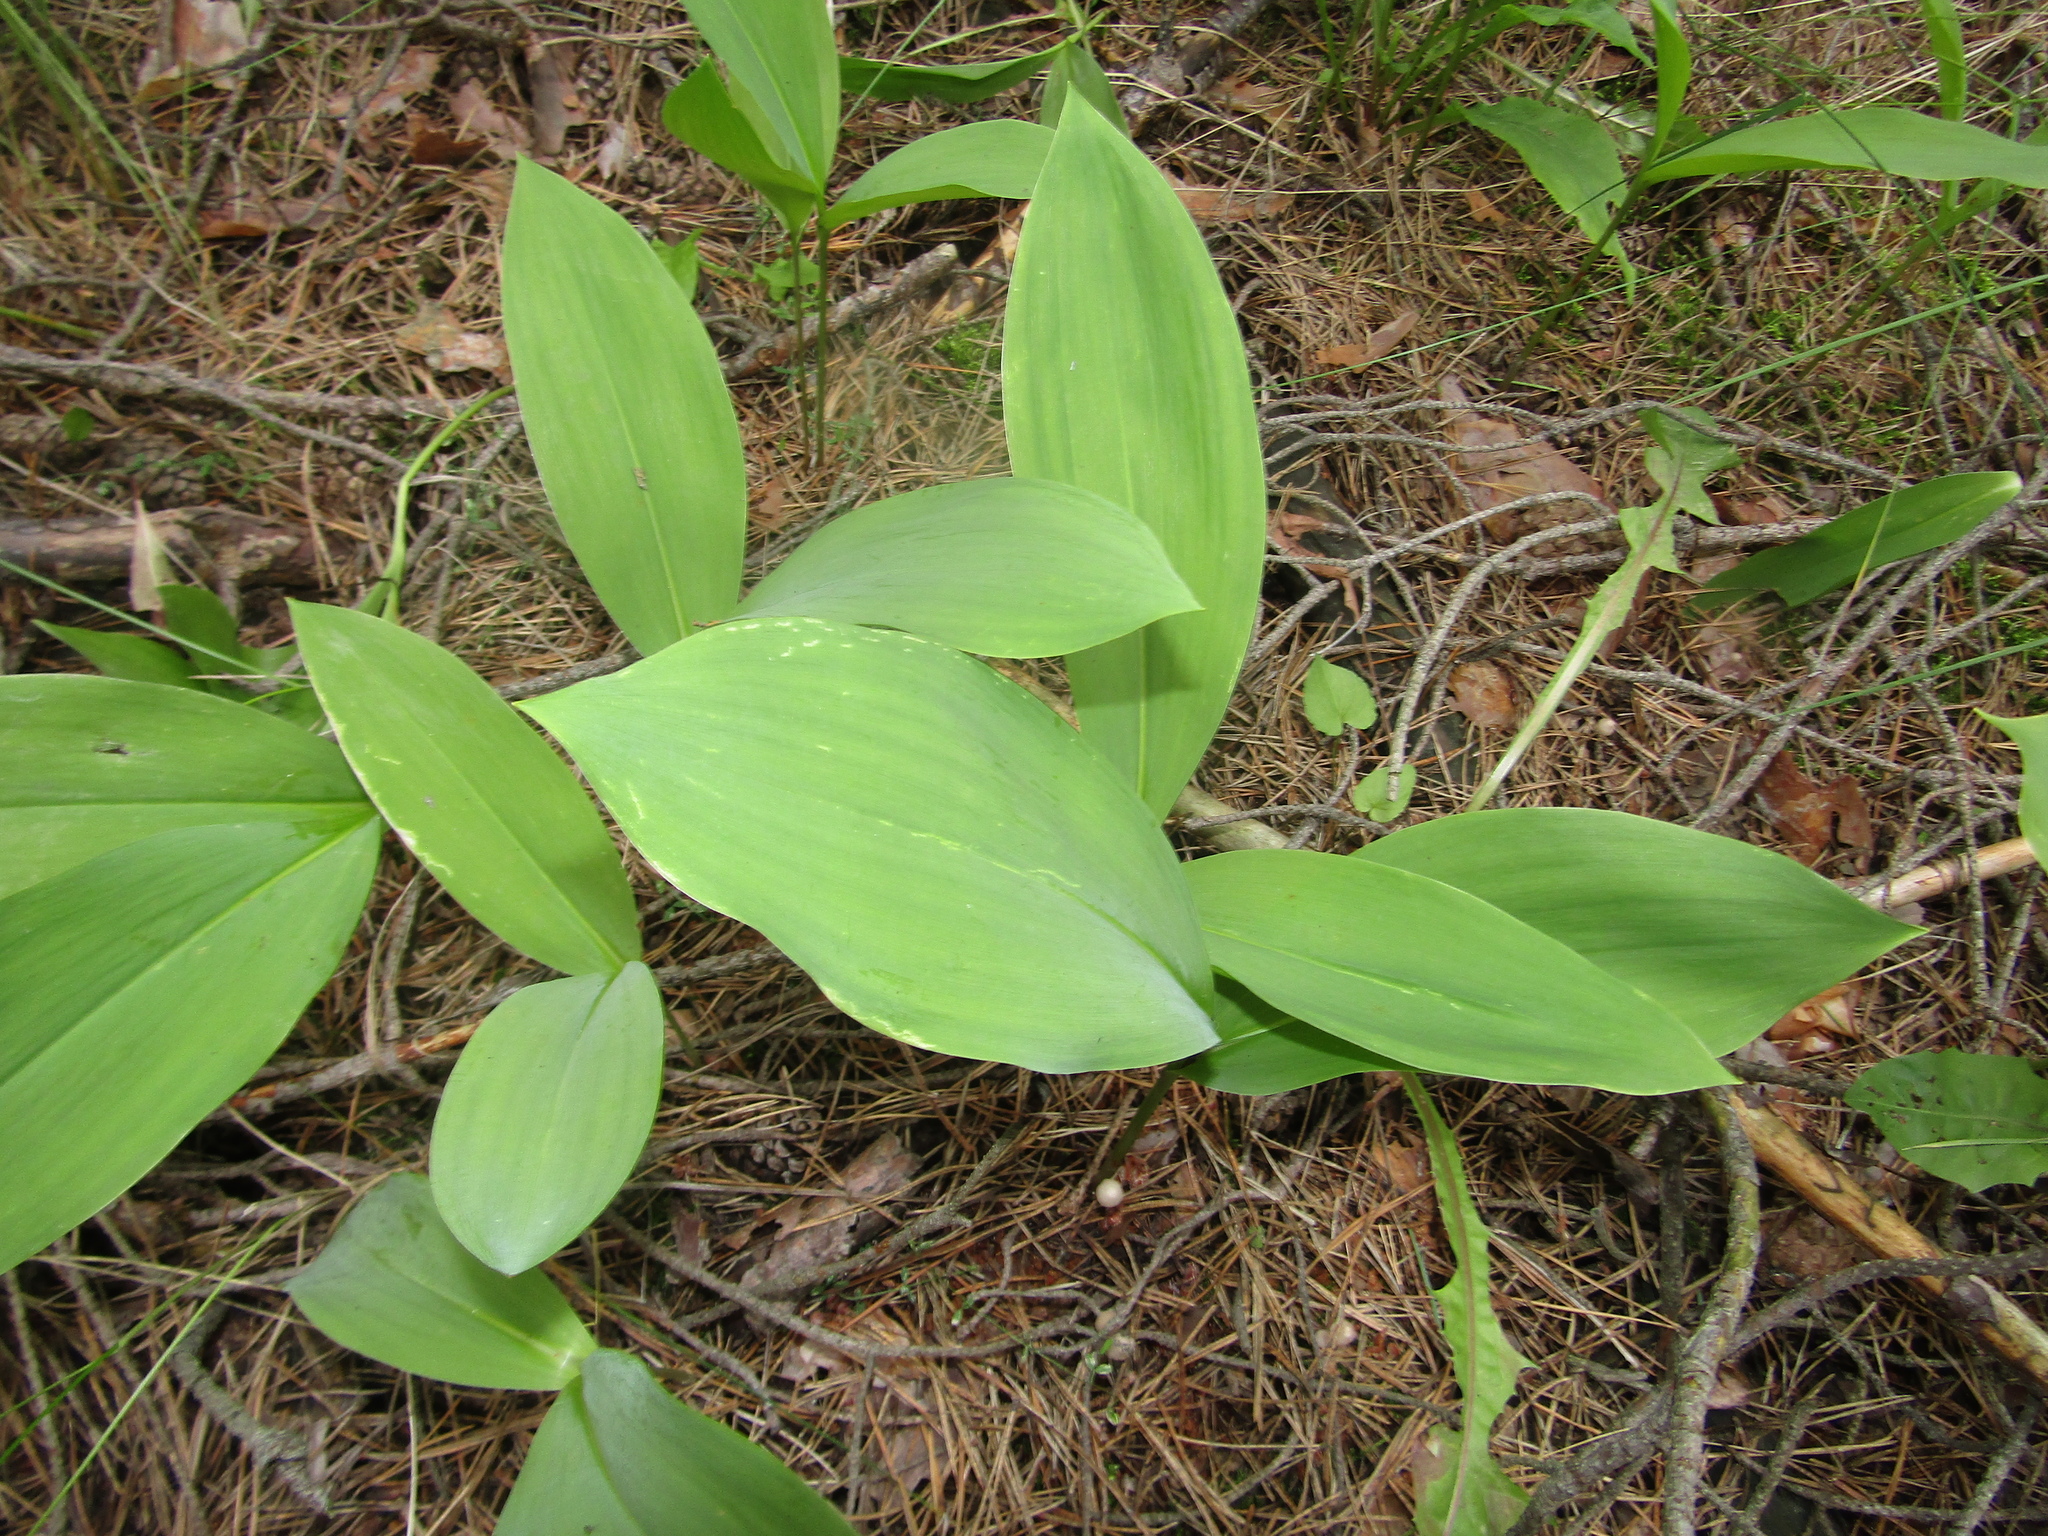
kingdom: Plantae
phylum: Tracheophyta
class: Liliopsida
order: Asparagales
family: Asparagaceae
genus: Convallaria
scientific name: Convallaria majalis
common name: Lily-of-the-valley
